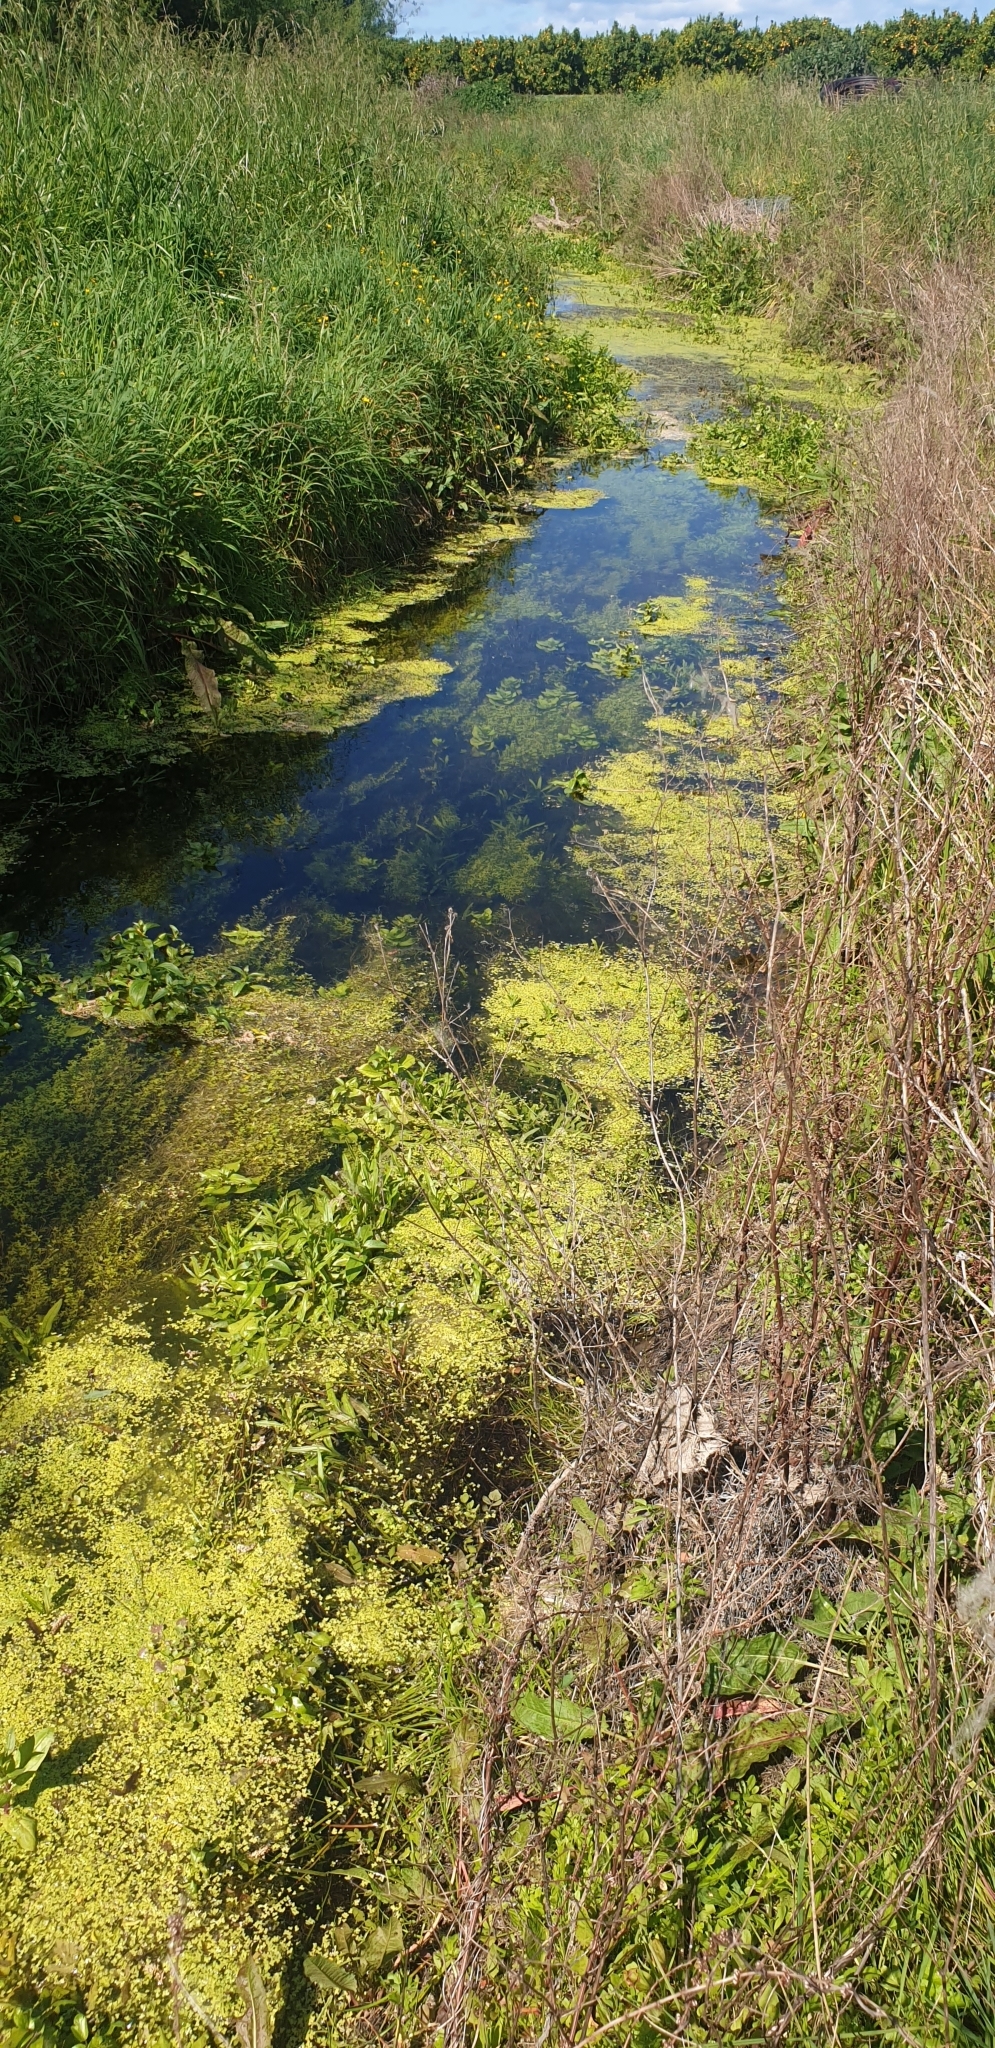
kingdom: Plantae
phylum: Tracheophyta
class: Liliopsida
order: Alismatales
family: Potamogetonaceae
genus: Potamogeton
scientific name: Potamogeton crispus
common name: Curled pondweed
